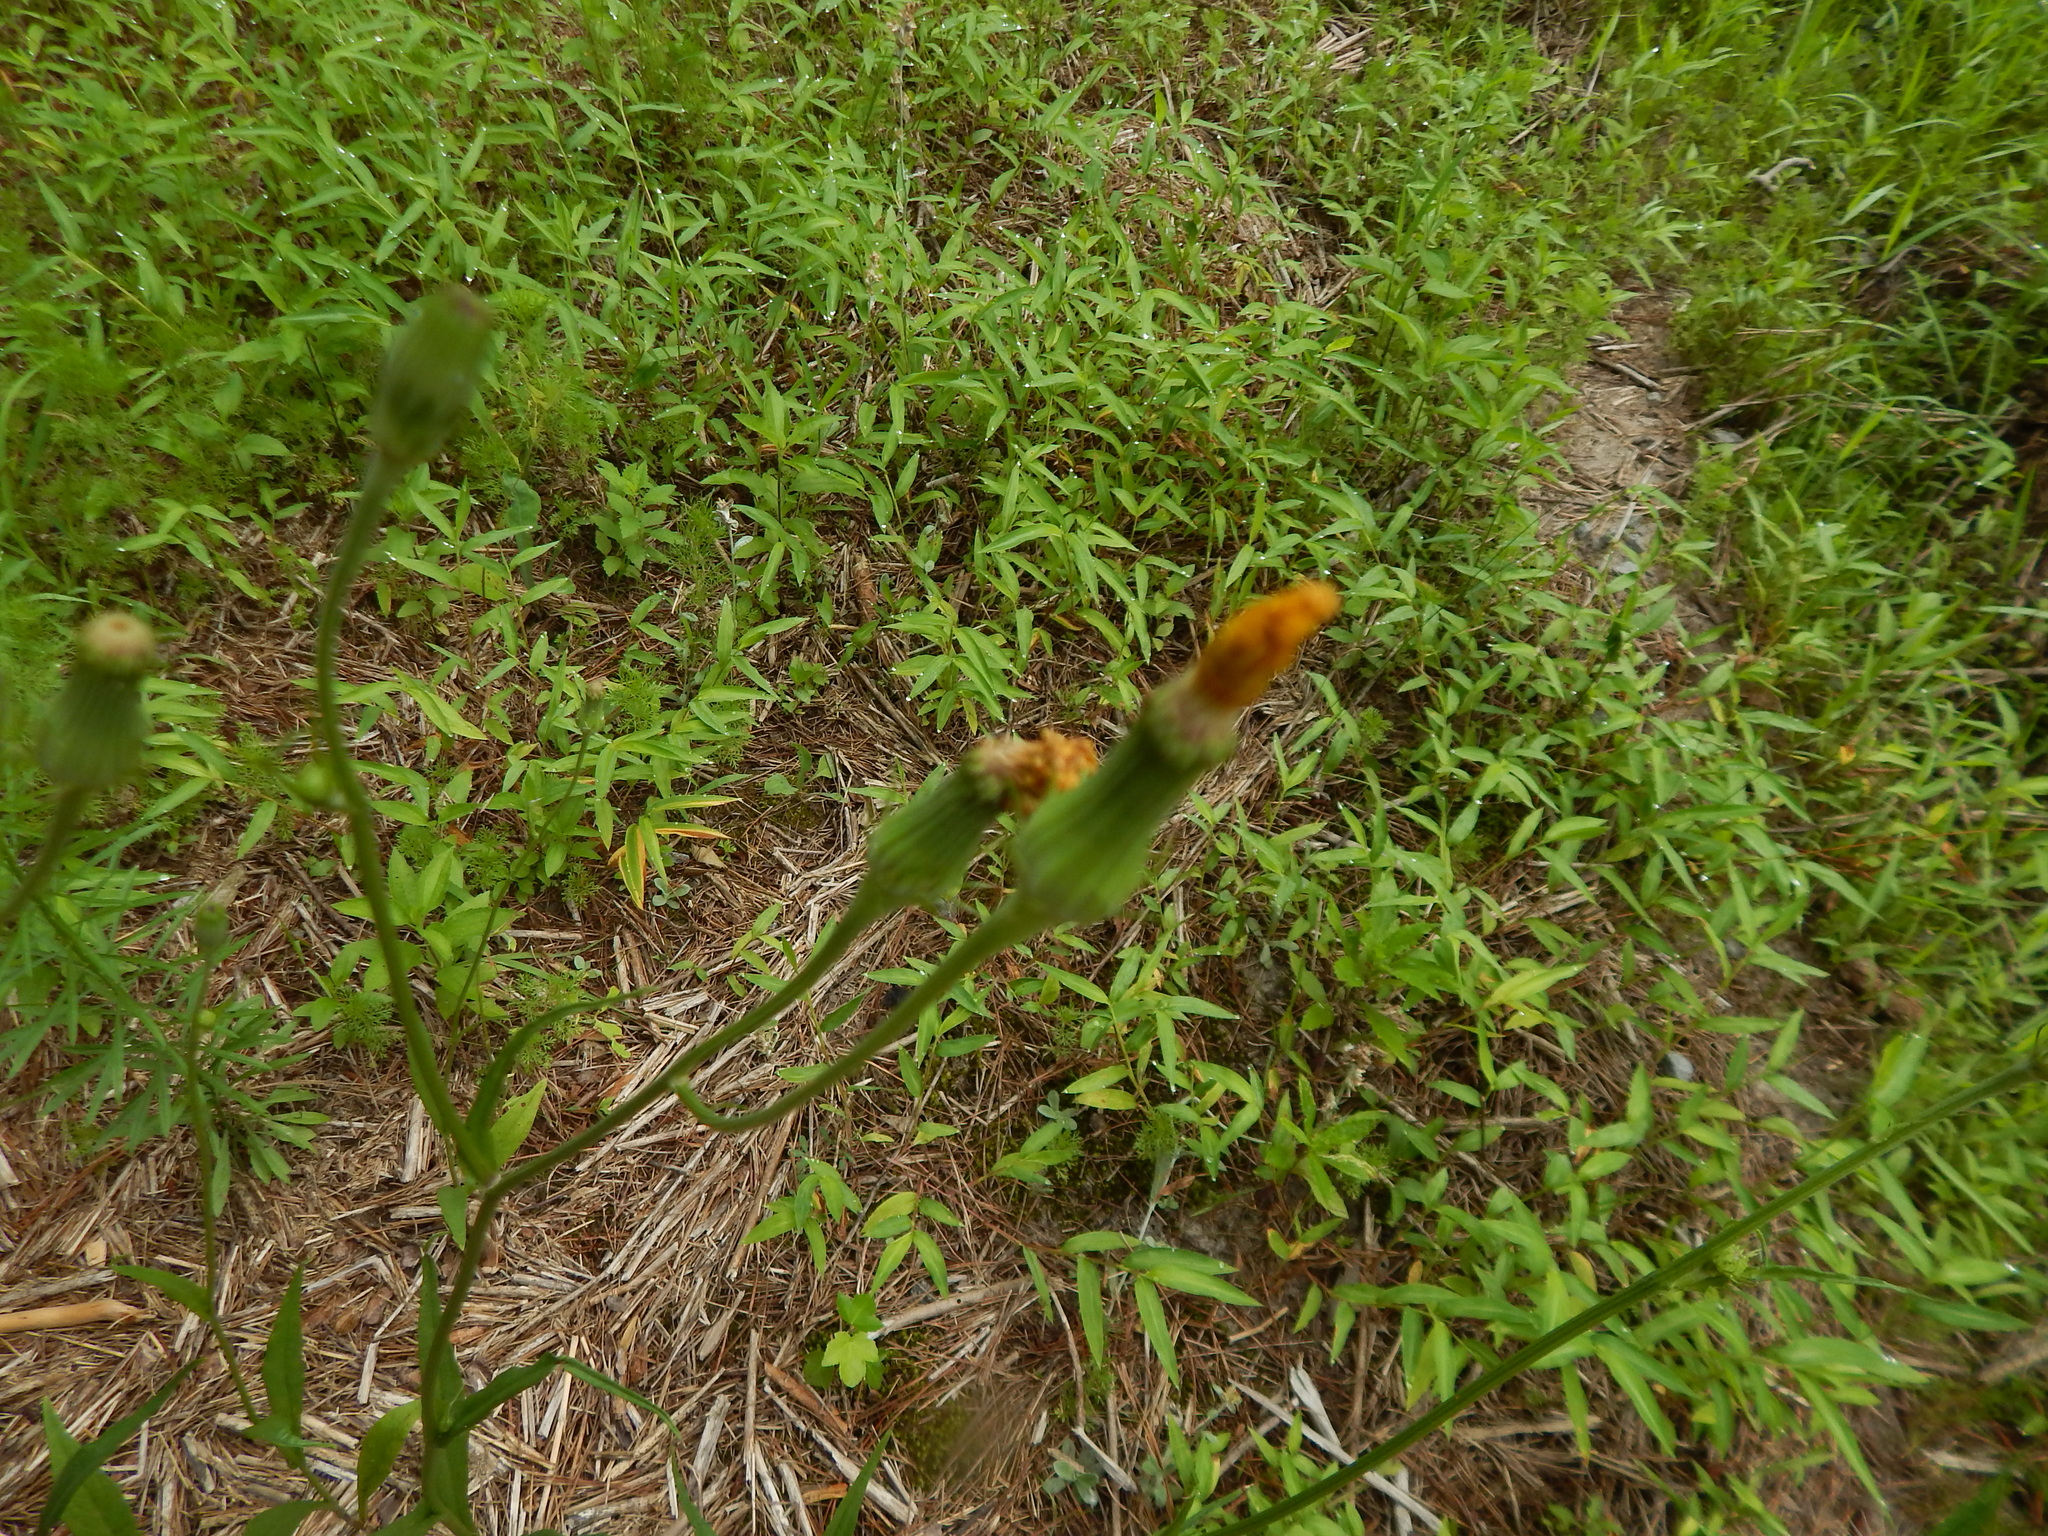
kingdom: Plantae
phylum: Tracheophyta
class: Magnoliopsida
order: Asterales
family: Asteraceae
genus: Tragopogon
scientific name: Tragopogon pratensis
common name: Goat's-beard
